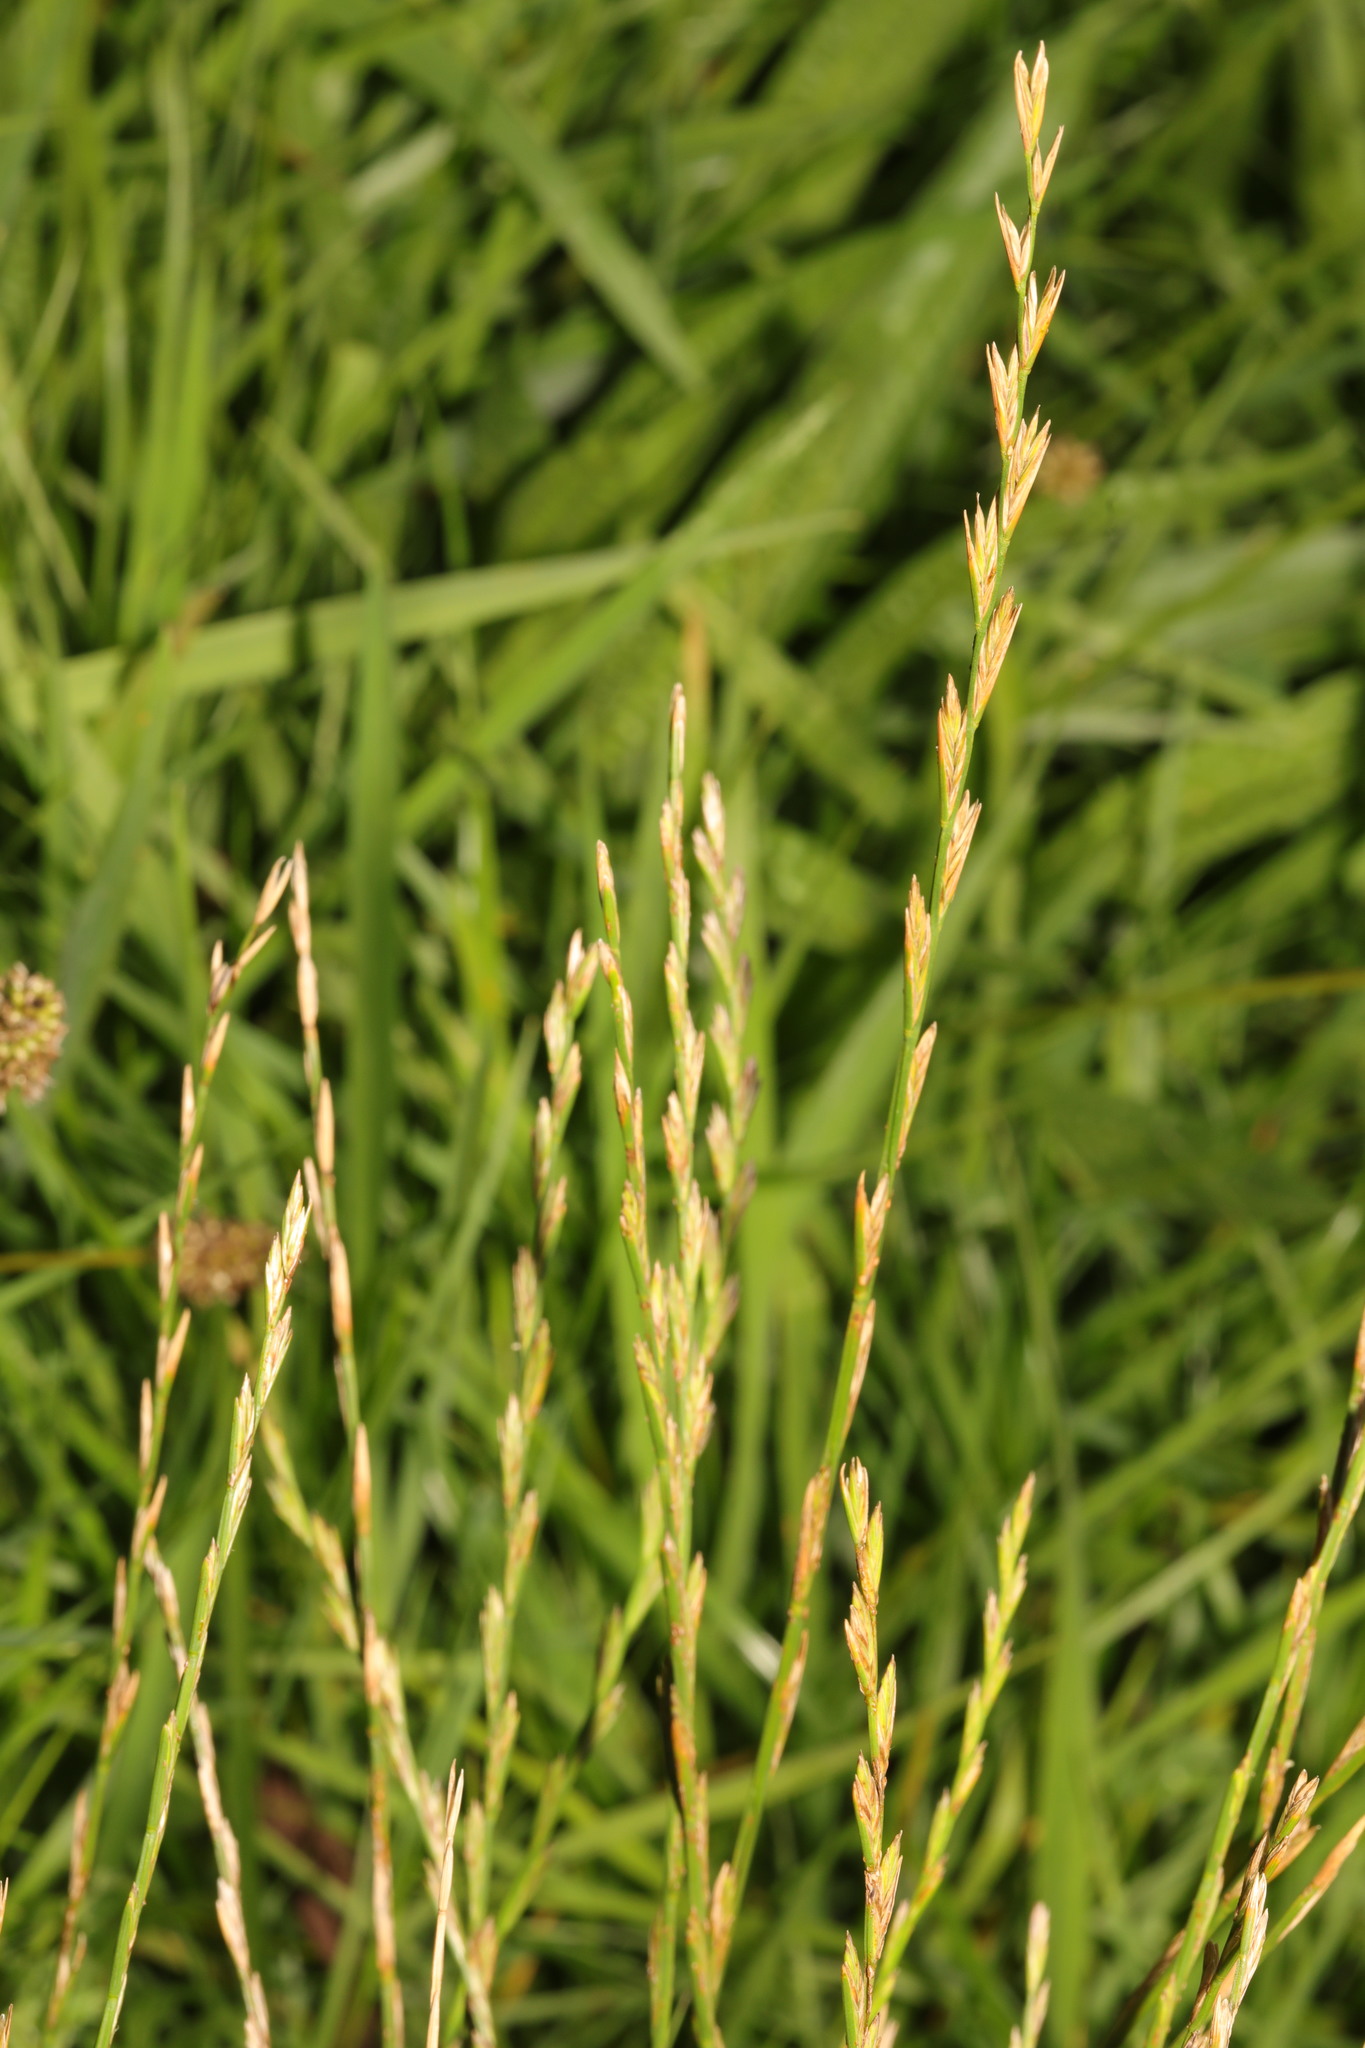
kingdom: Plantae
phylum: Tracheophyta
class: Liliopsida
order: Poales
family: Poaceae
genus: Lolium
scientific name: Lolium perenne
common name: Perennial ryegrass
